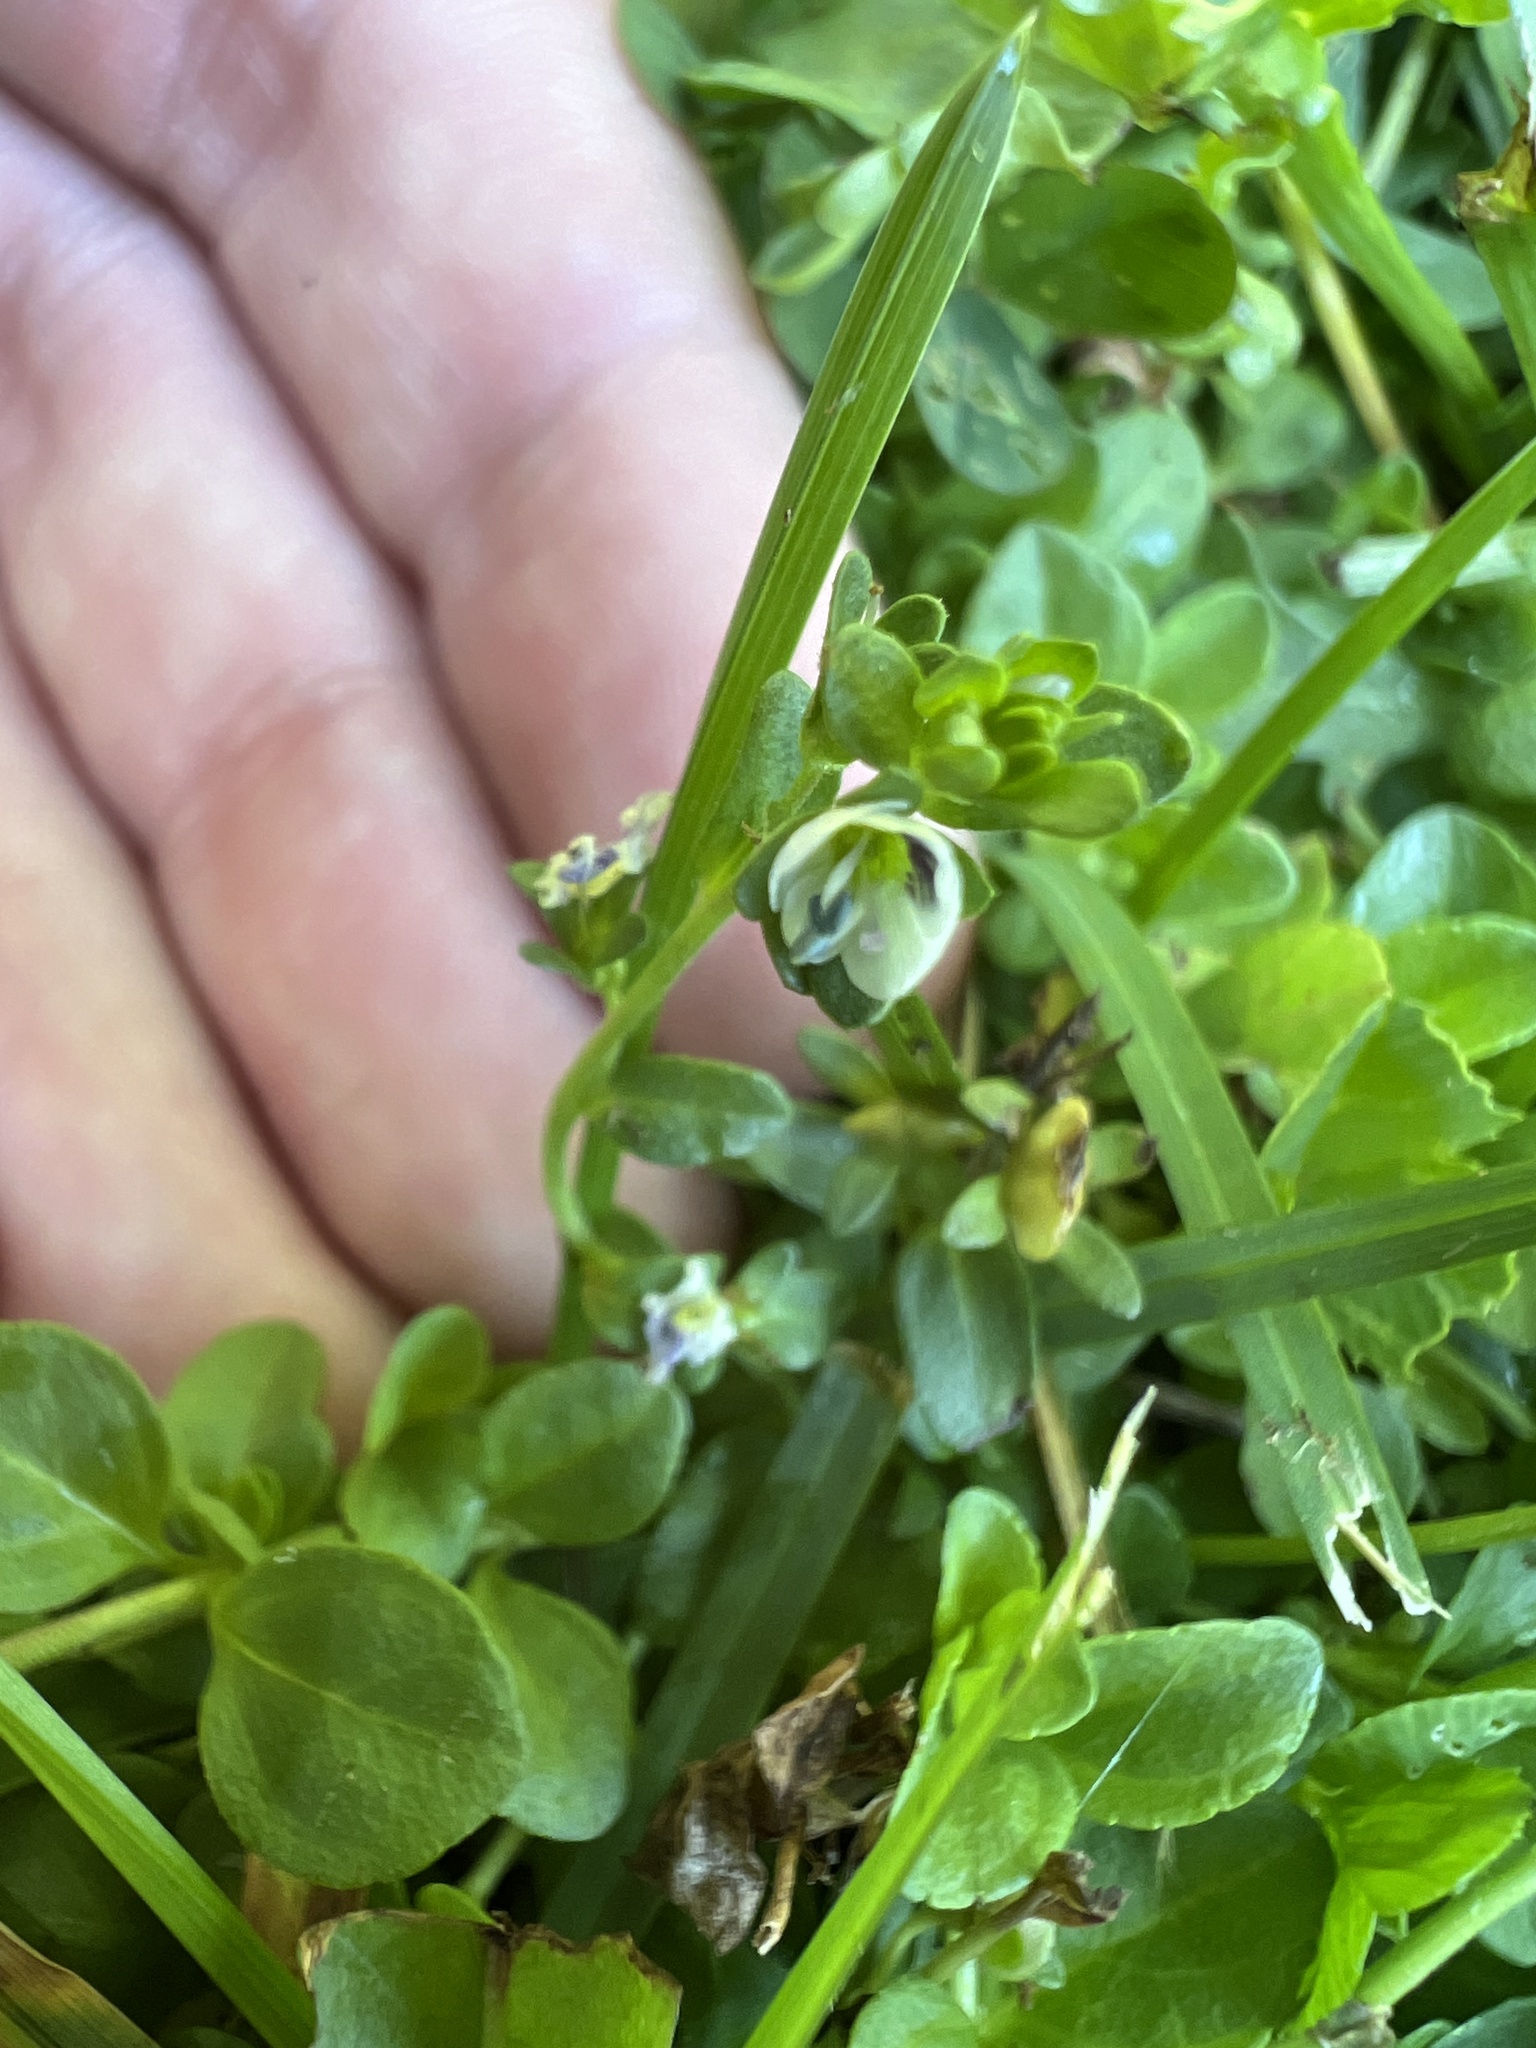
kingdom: Plantae
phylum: Tracheophyta
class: Magnoliopsida
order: Lamiales
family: Plantaginaceae
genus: Veronica
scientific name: Veronica serpyllifolia
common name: Thyme-leaved speedwell
